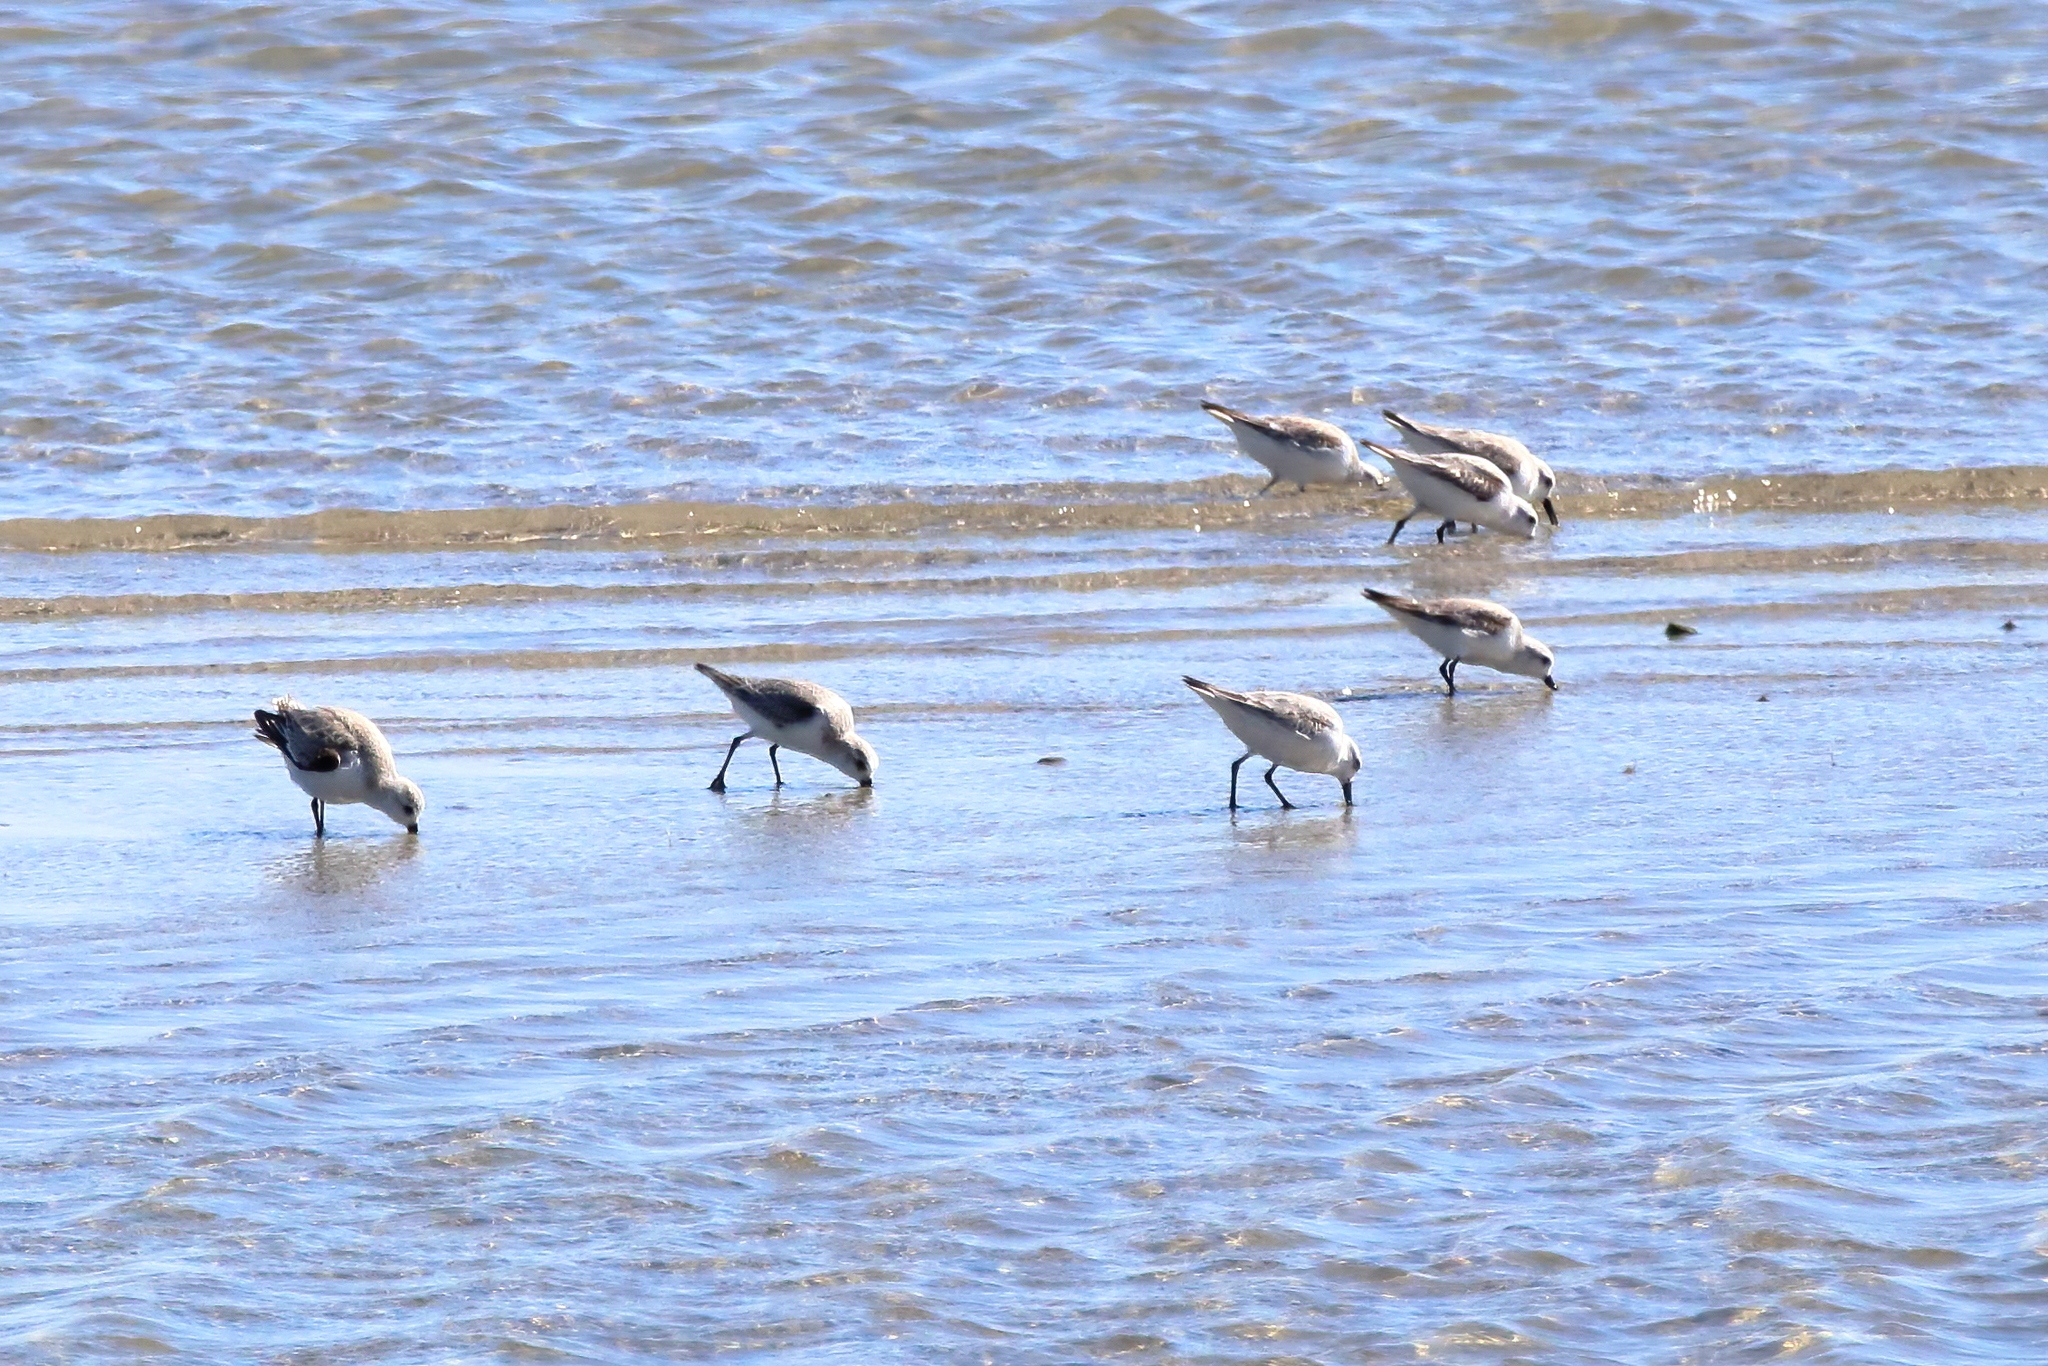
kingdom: Animalia
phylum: Chordata
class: Aves
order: Charadriiformes
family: Scolopacidae
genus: Calidris
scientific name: Calidris alba
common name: Sanderling
